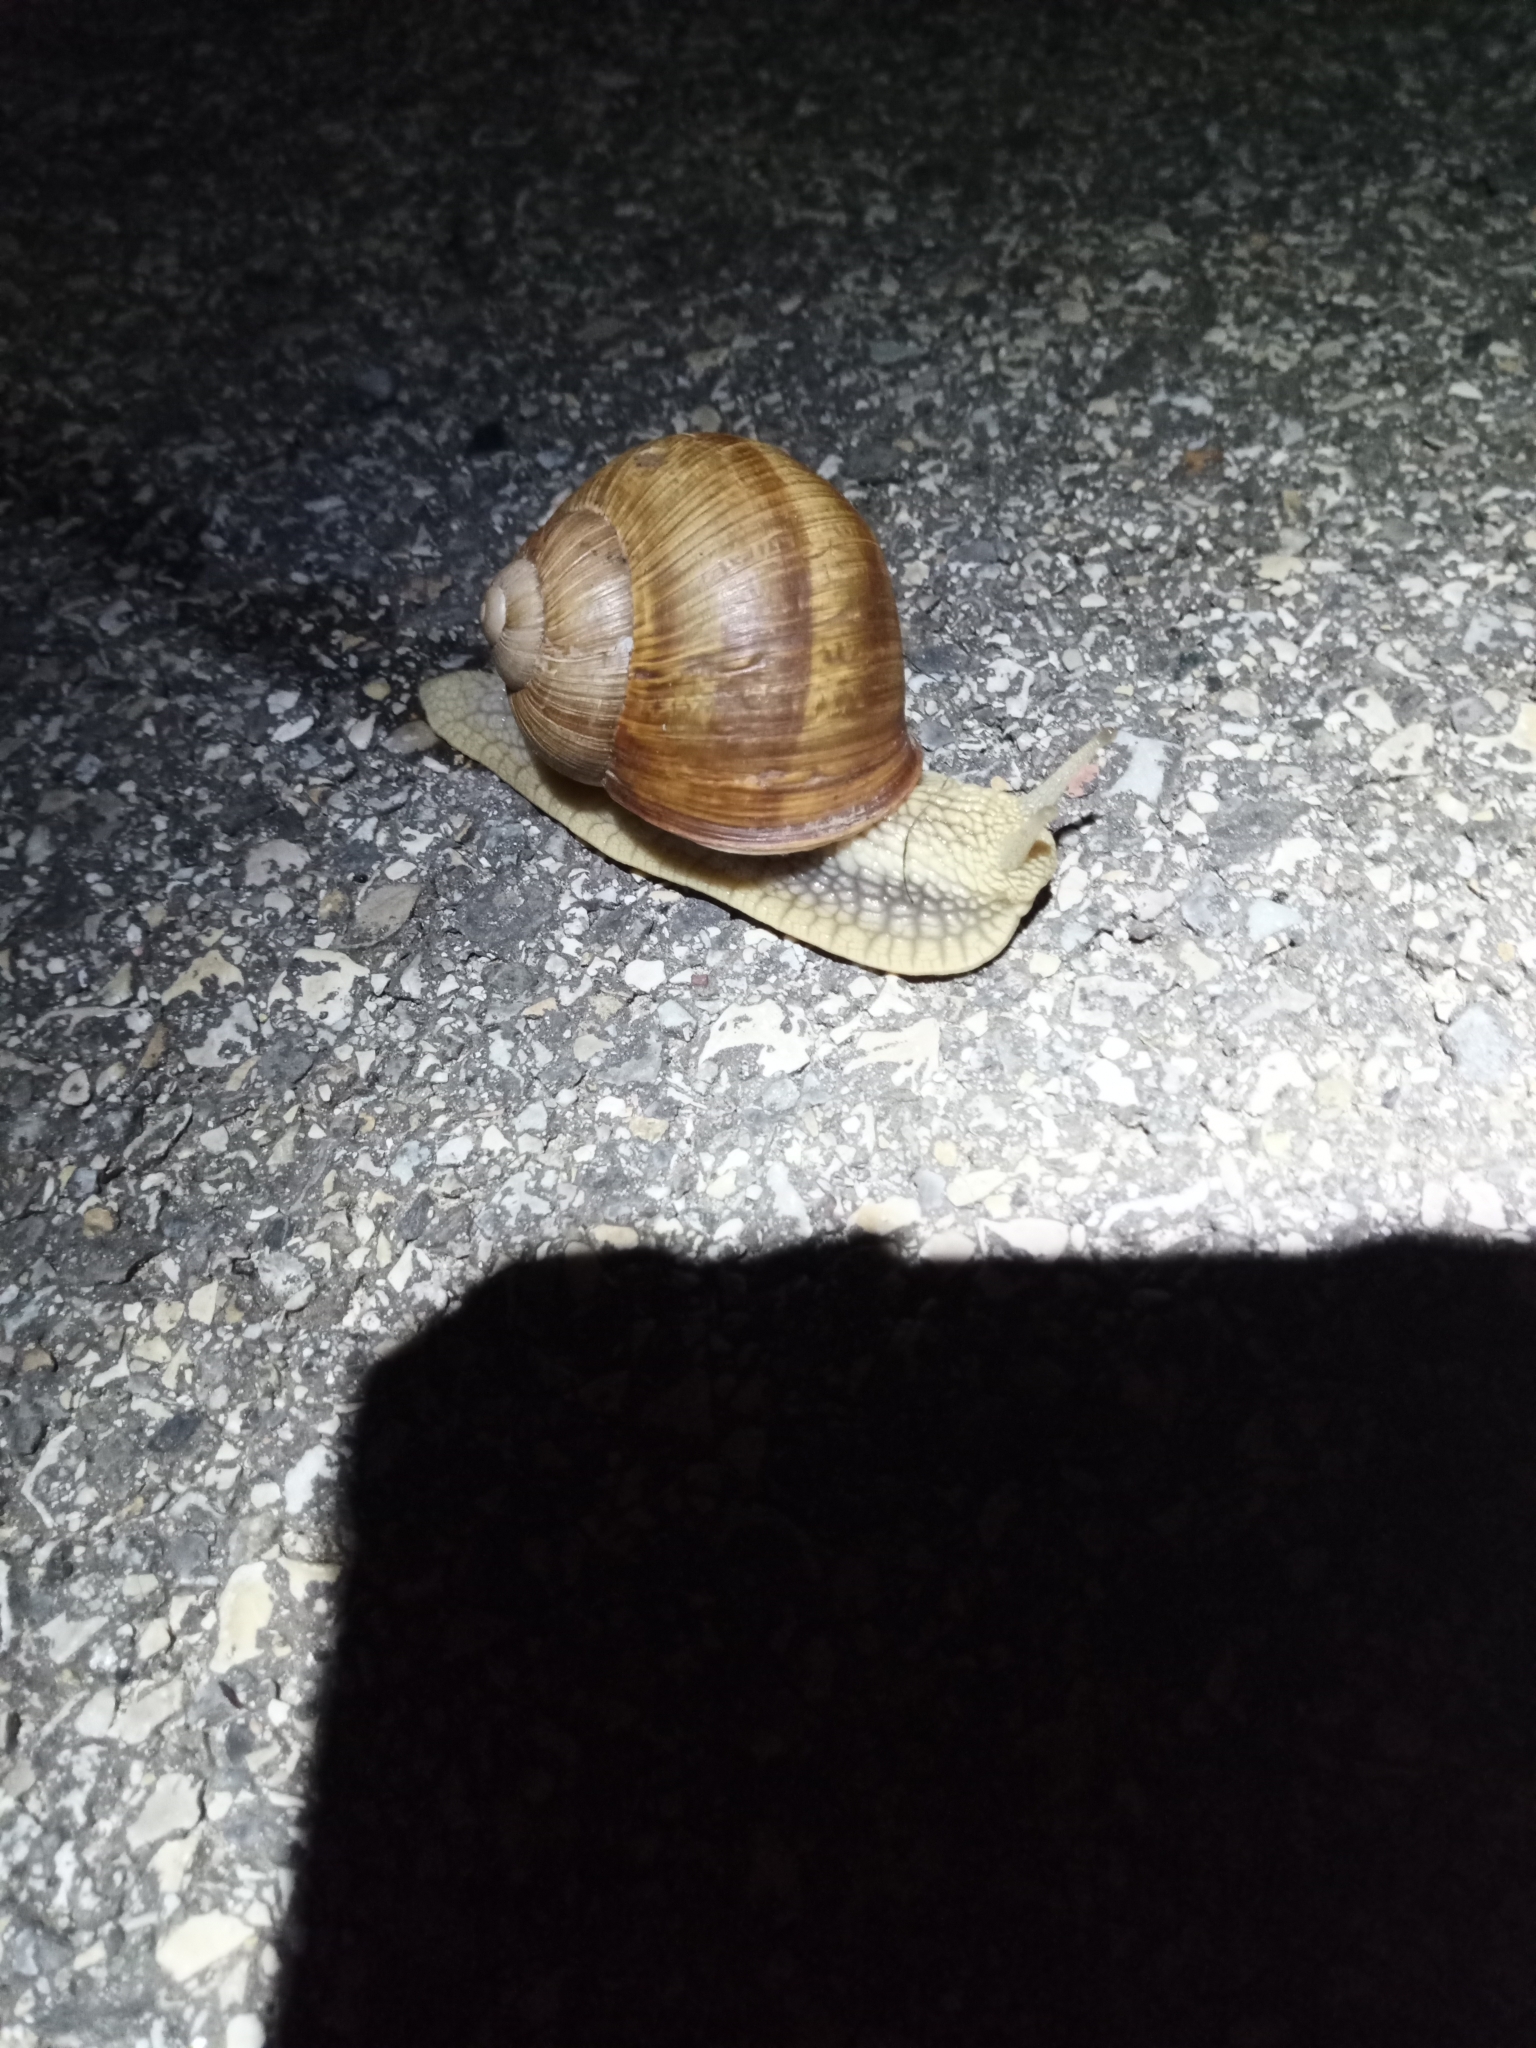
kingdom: Animalia
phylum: Mollusca
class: Gastropoda
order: Stylommatophora
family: Helicidae
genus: Helix
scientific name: Helix pomatia
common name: Roman snail
